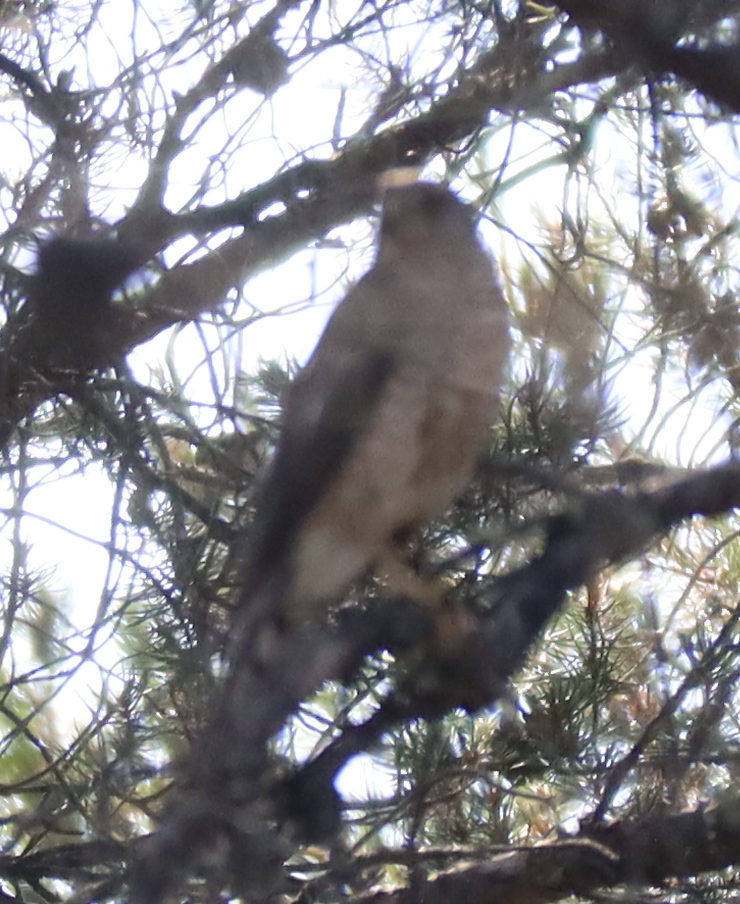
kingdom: Animalia
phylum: Chordata
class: Aves
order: Accipitriformes
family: Accipitridae
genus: Accipiter
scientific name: Accipiter striatus
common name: Sharp-shinned hawk
